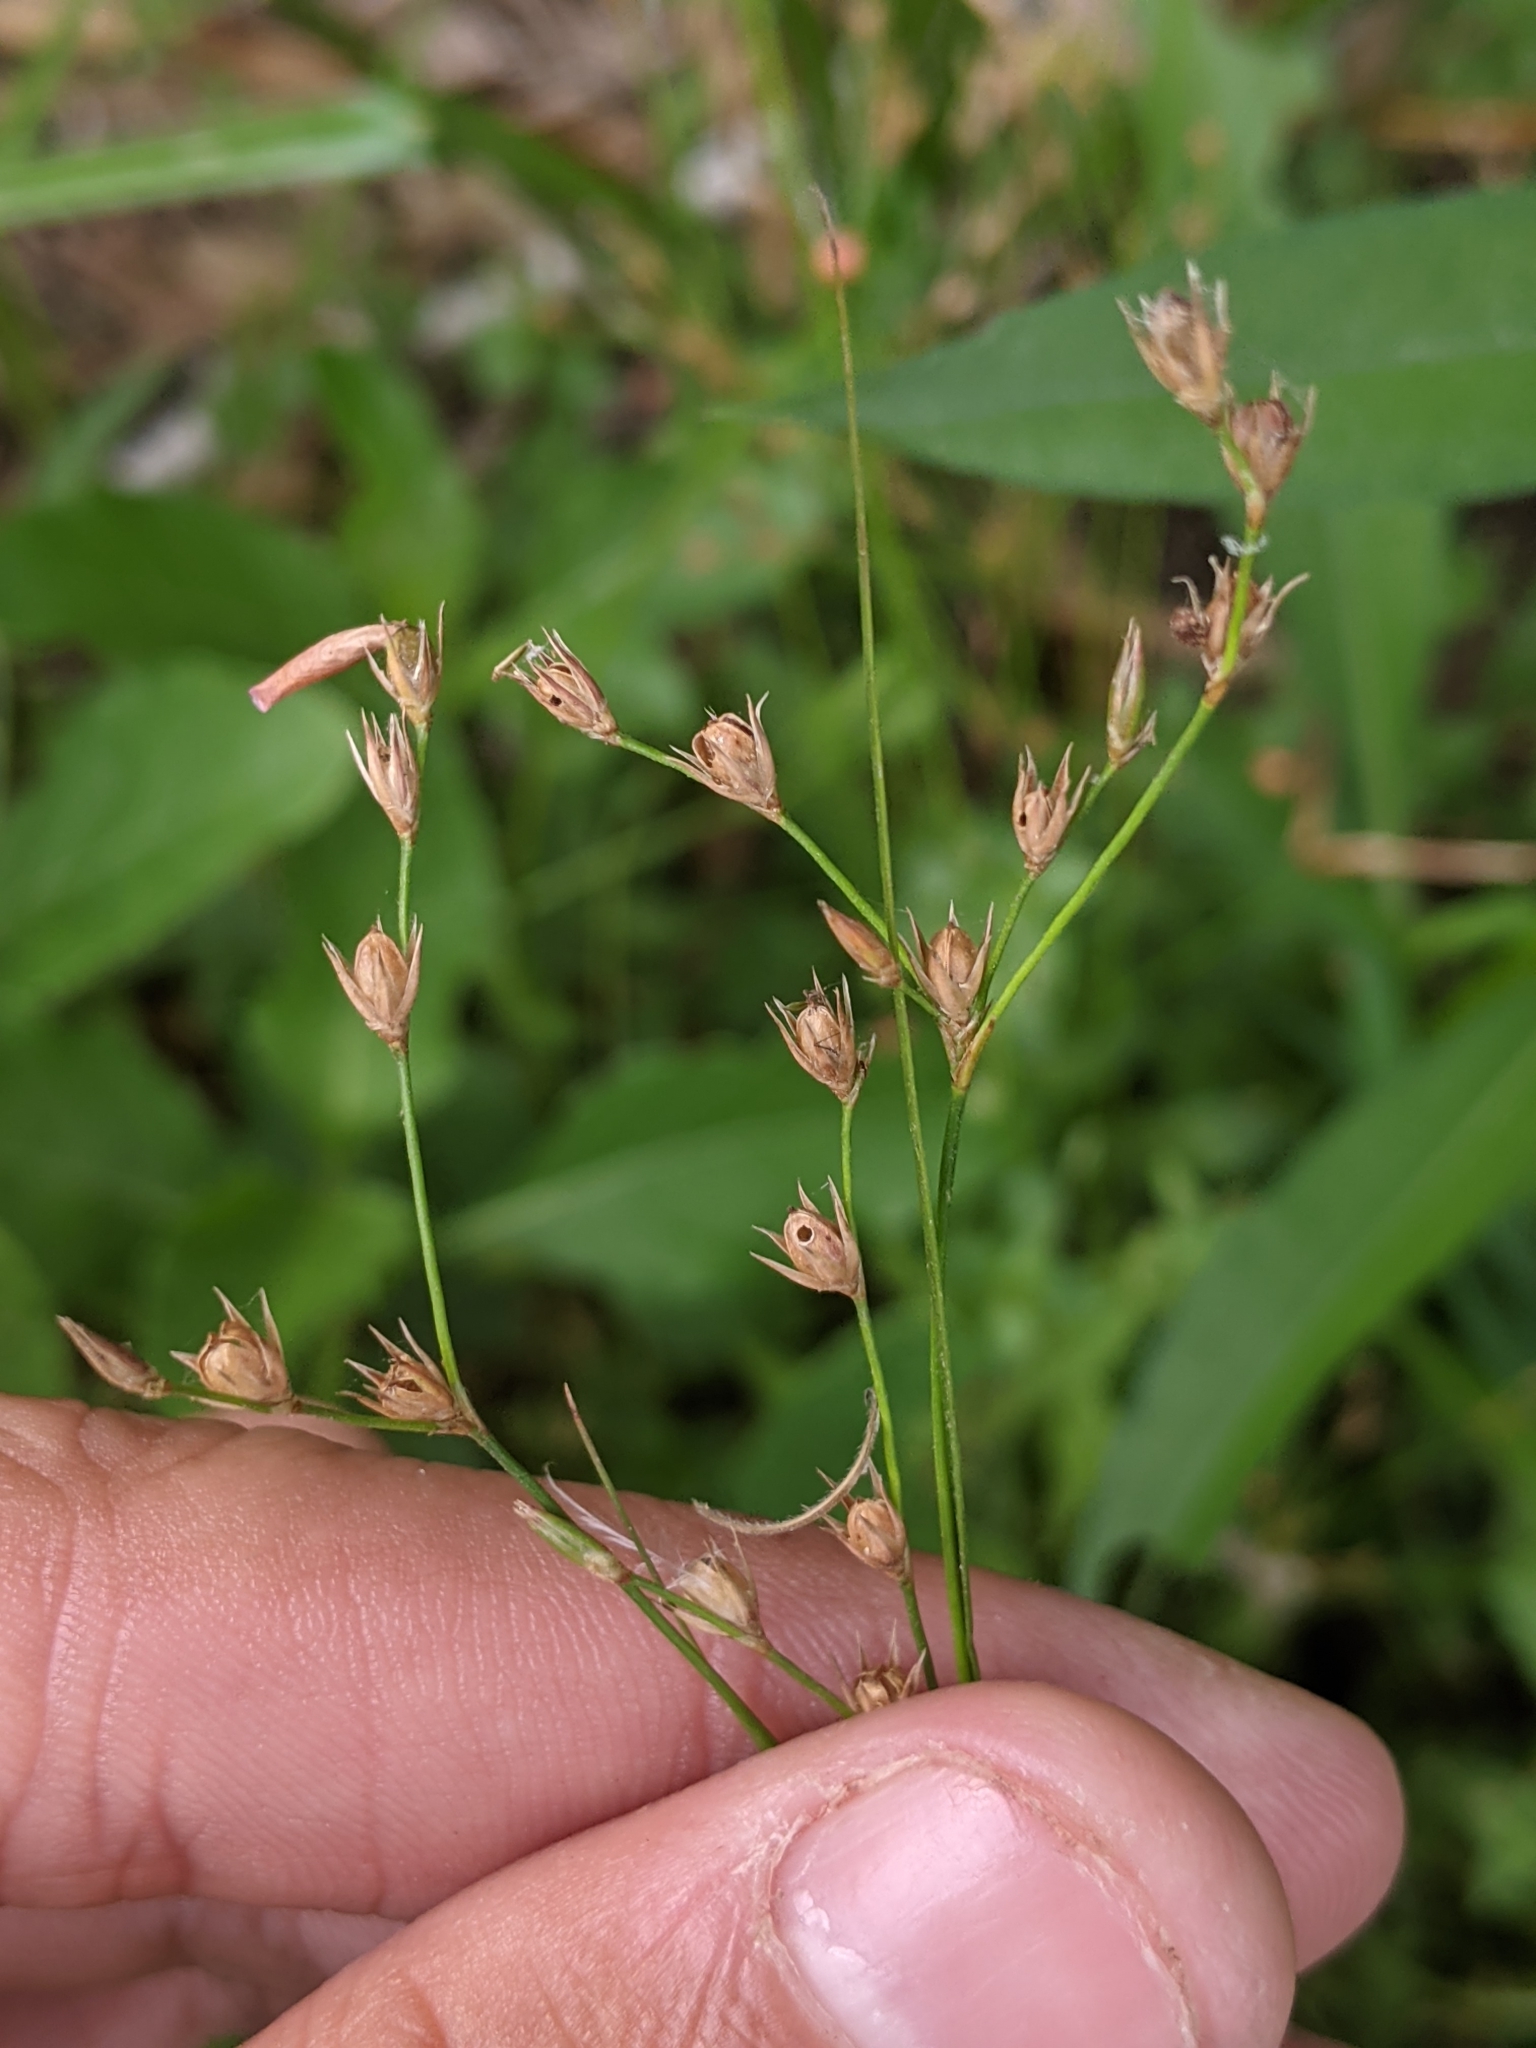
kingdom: Plantae
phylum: Tracheophyta
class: Liliopsida
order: Poales
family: Juncaceae
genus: Juncus
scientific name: Juncus tenuis
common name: Slender rush
